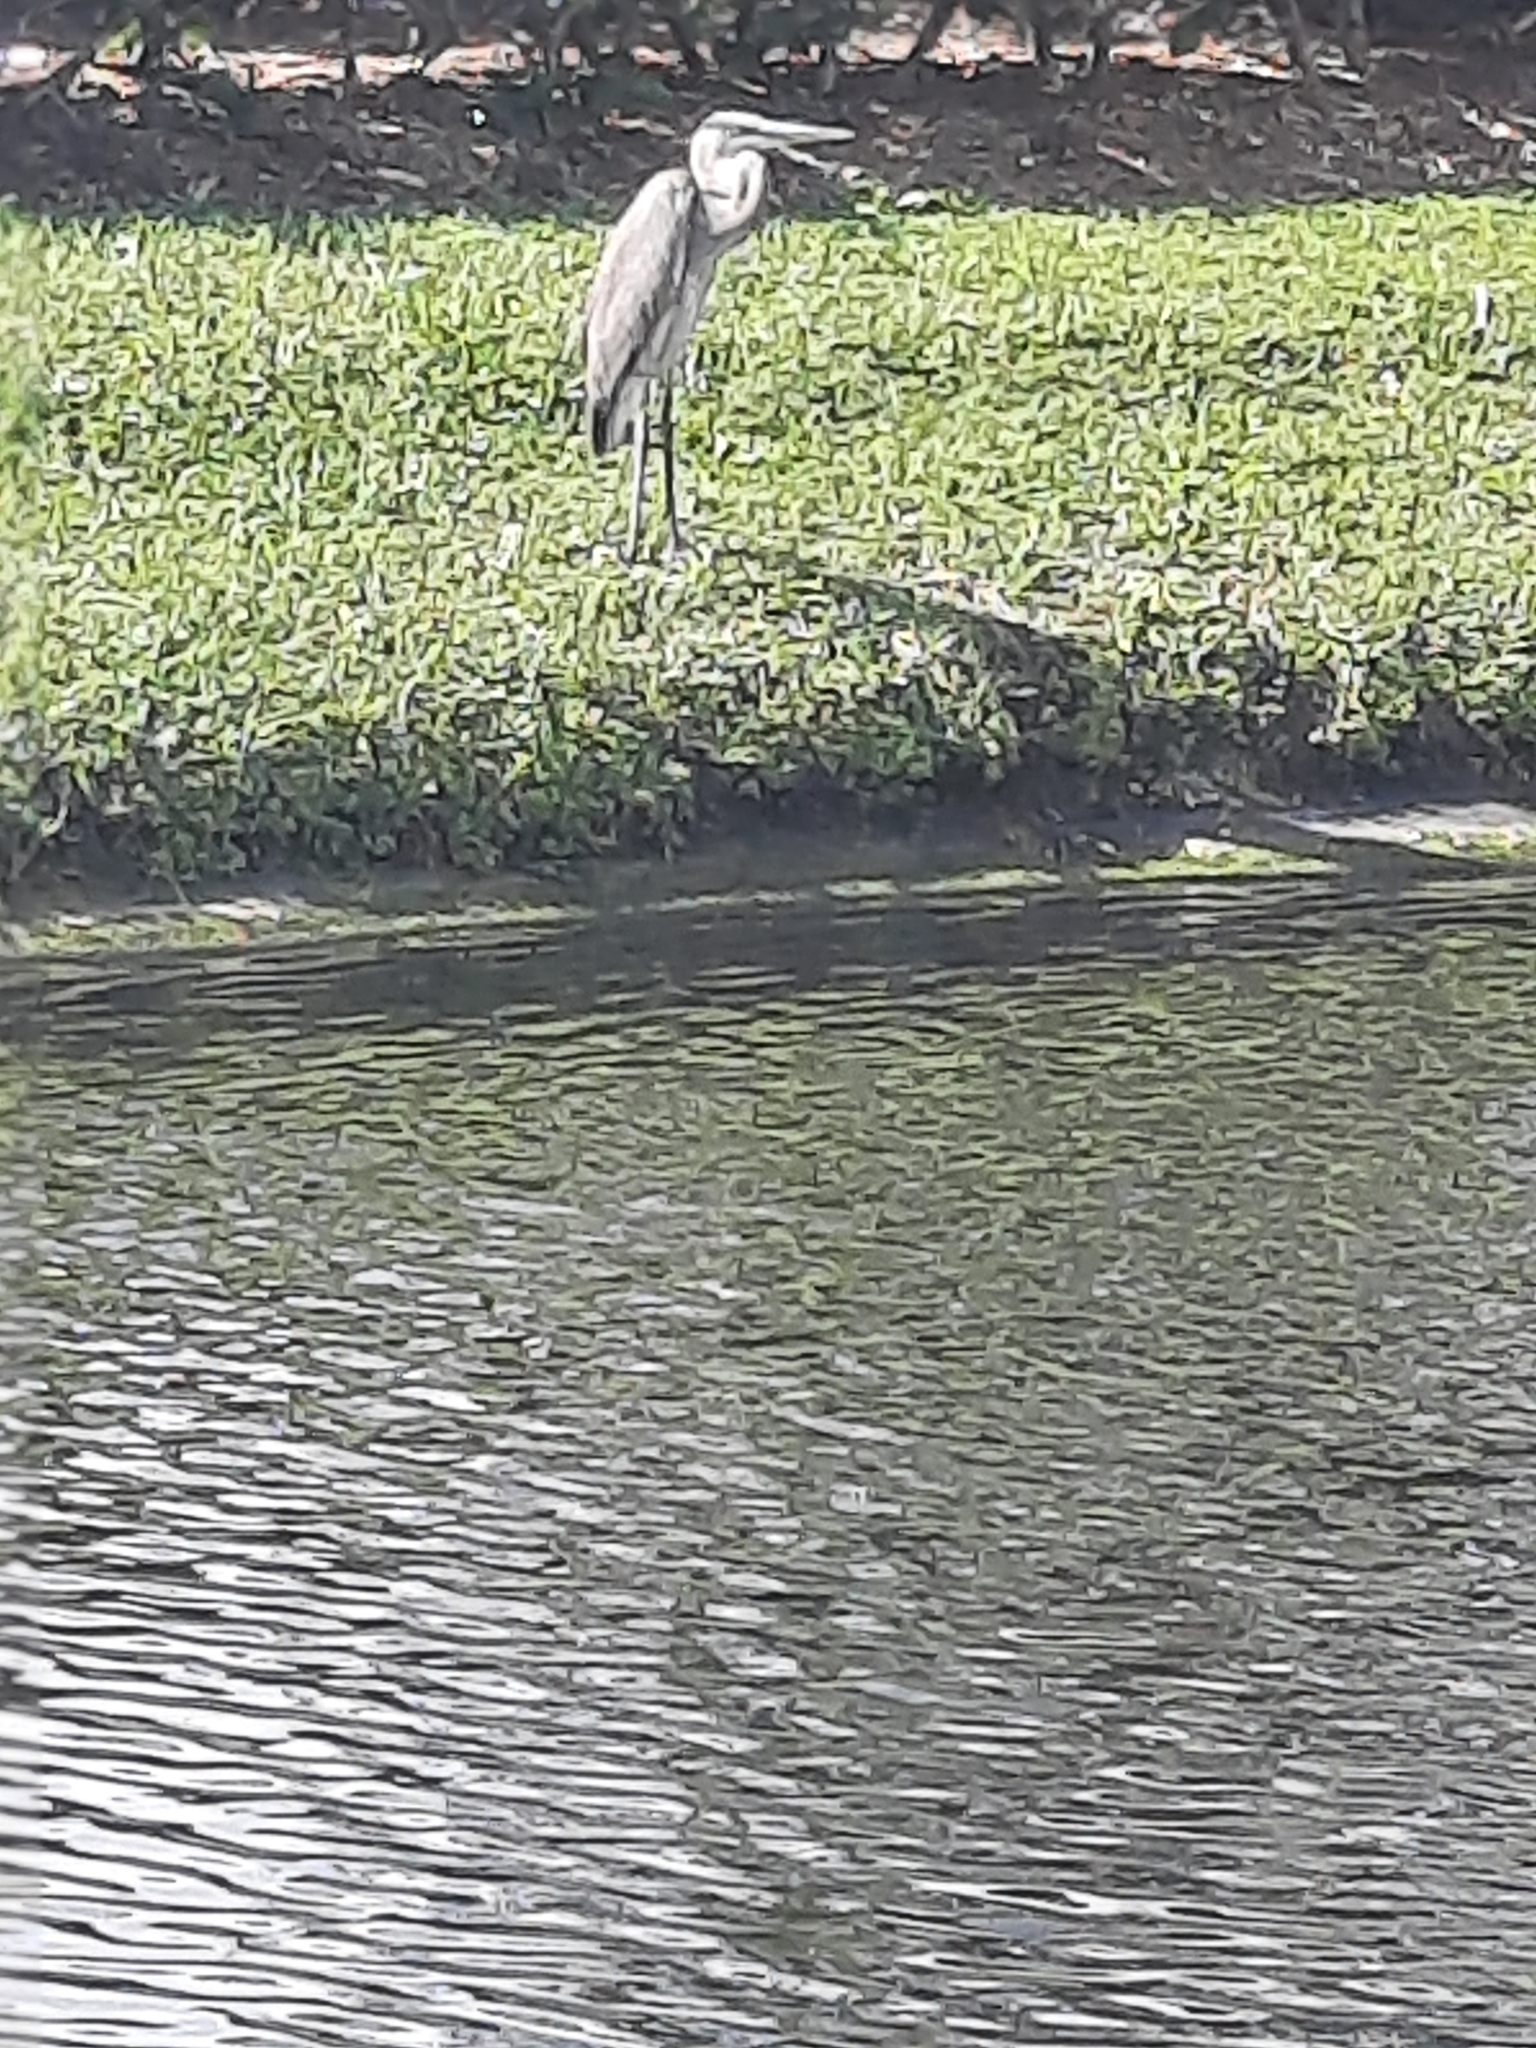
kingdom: Animalia
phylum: Chordata
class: Aves
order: Pelecaniformes
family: Ardeidae
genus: Ardea
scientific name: Ardea herodias
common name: Great blue heron
